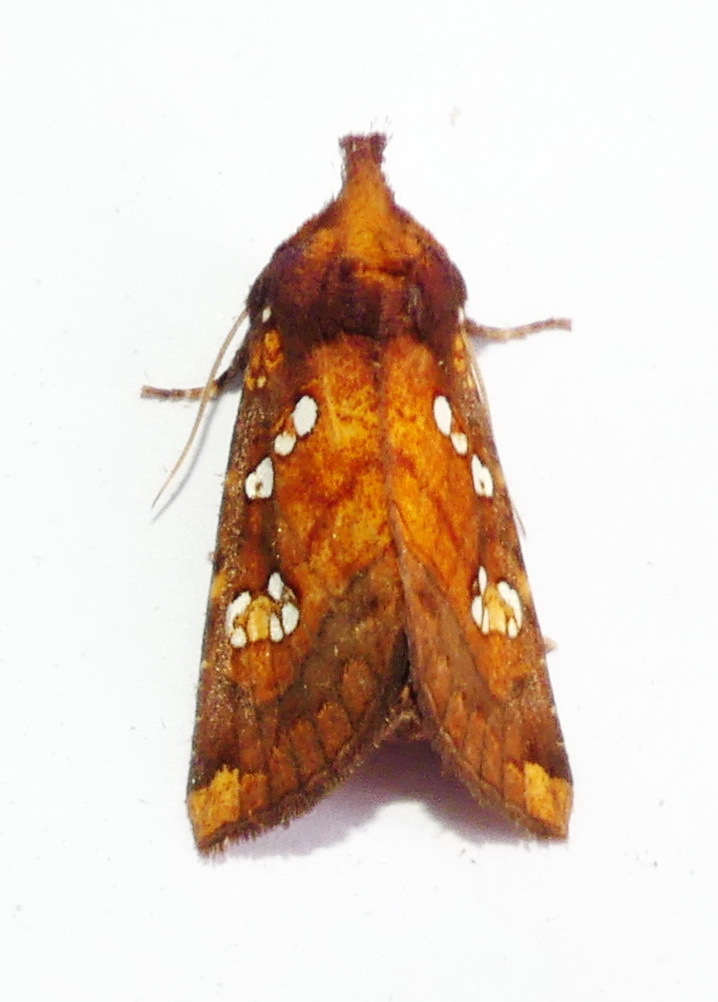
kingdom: Animalia
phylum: Arthropoda
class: Insecta
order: Lepidoptera
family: Noctuidae
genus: Papaipema
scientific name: Papaipema baptisiae
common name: Wild indigo borer moth
